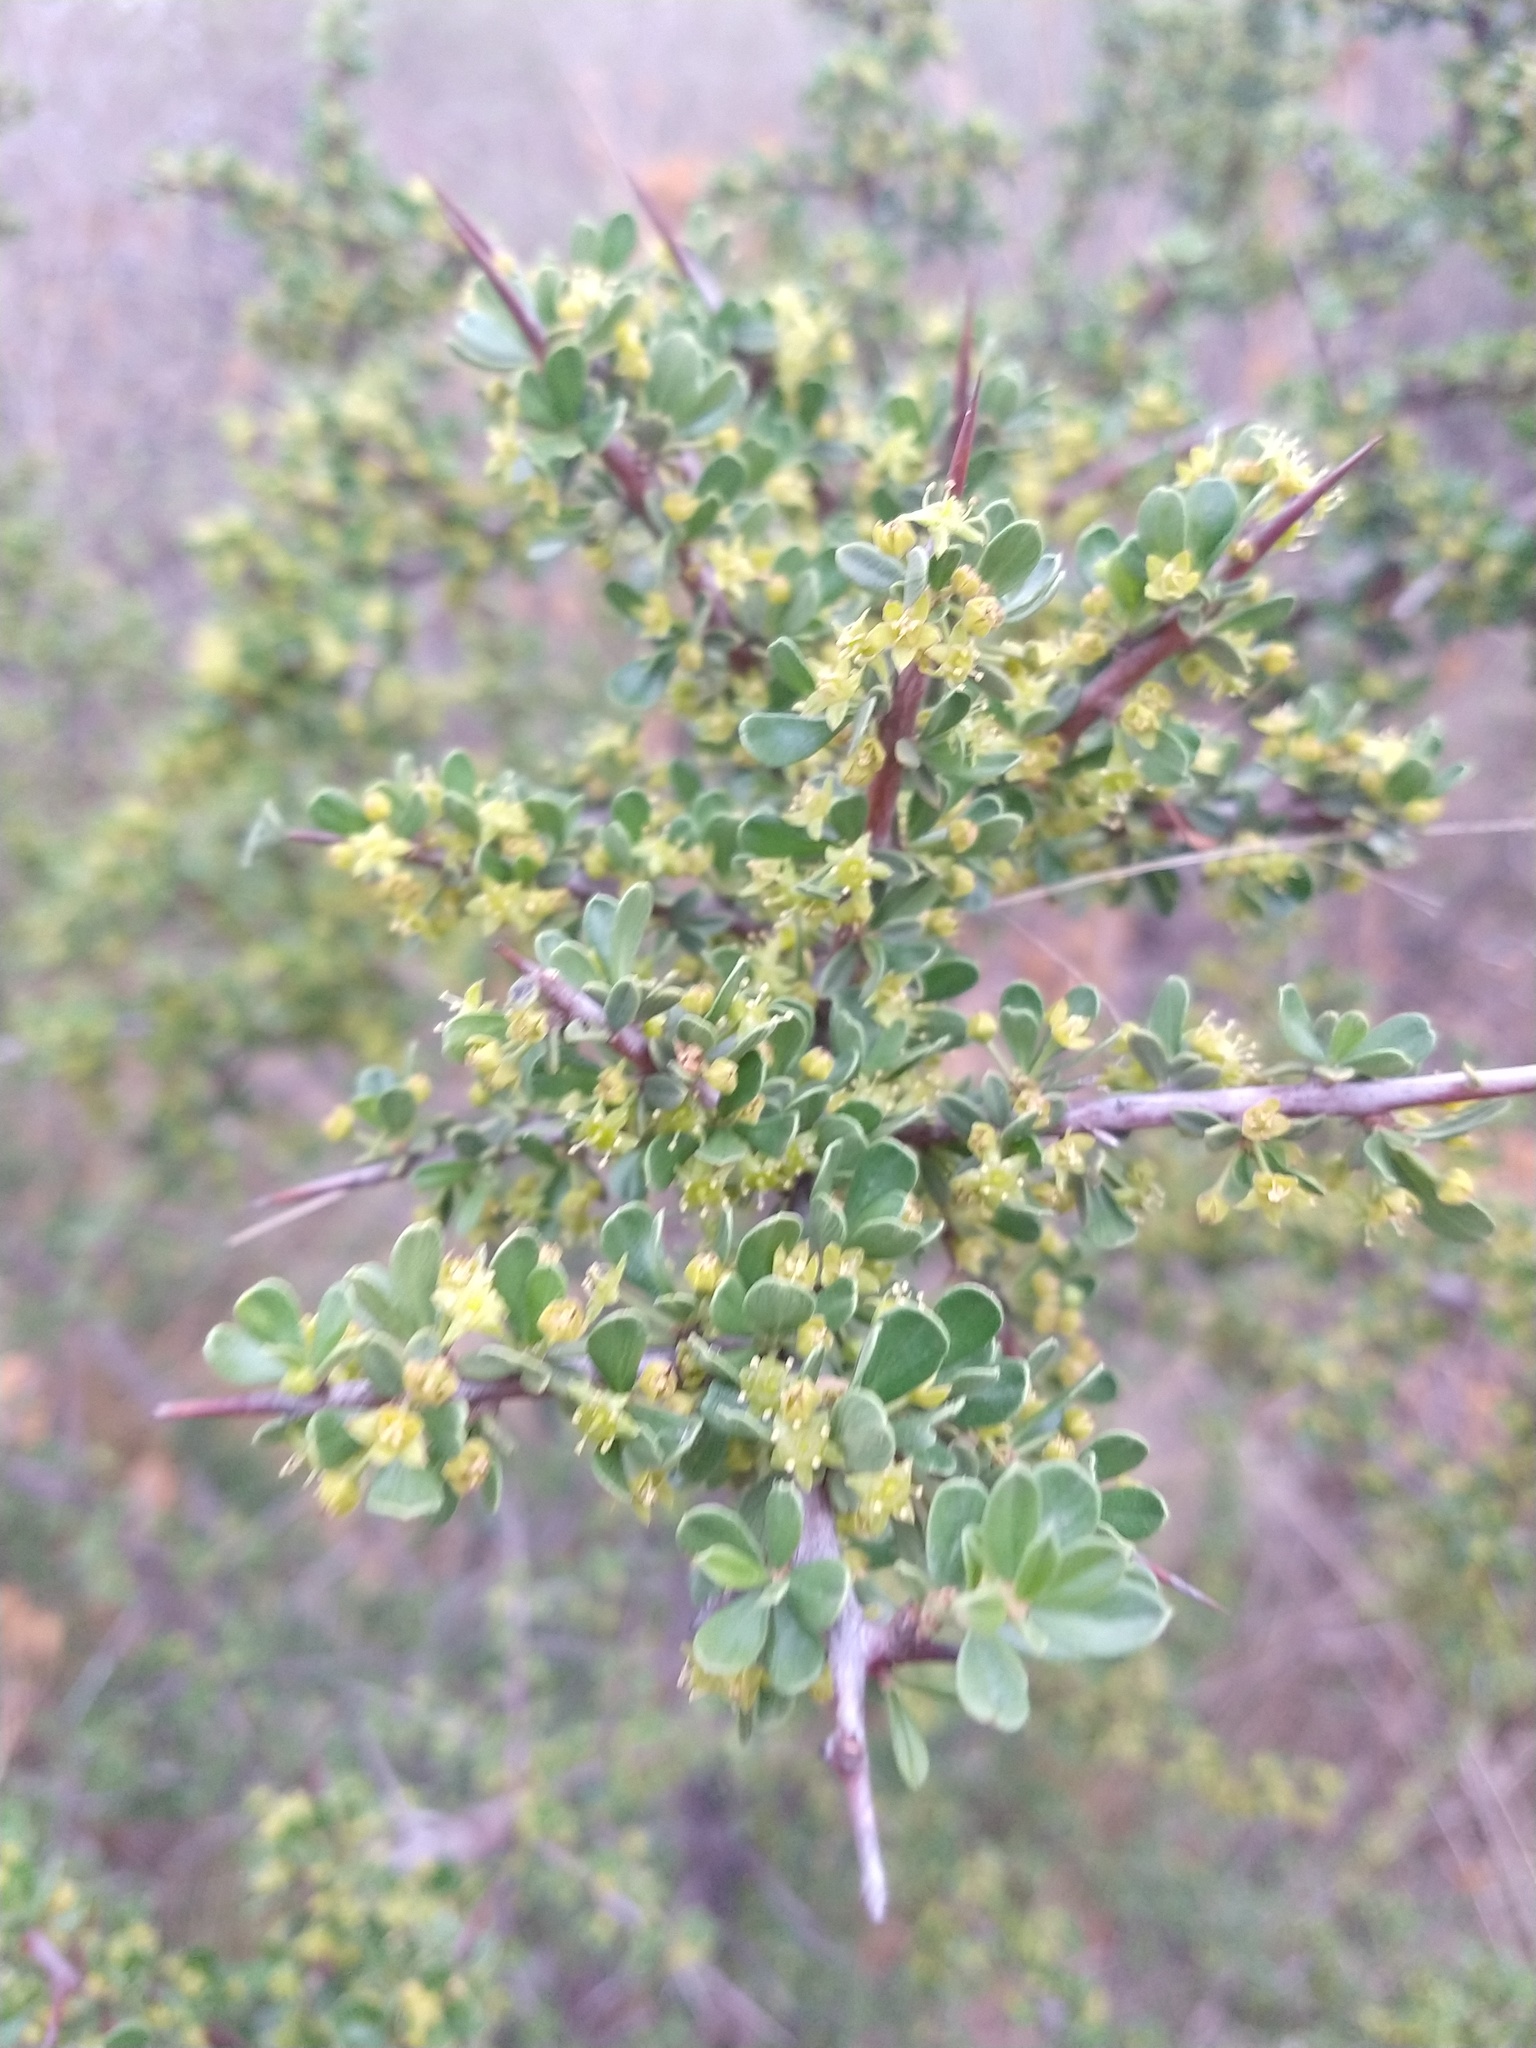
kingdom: Plantae
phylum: Tracheophyta
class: Magnoliopsida
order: Rosales
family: Rhamnaceae
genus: Condalia
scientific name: Condalia microphylla
